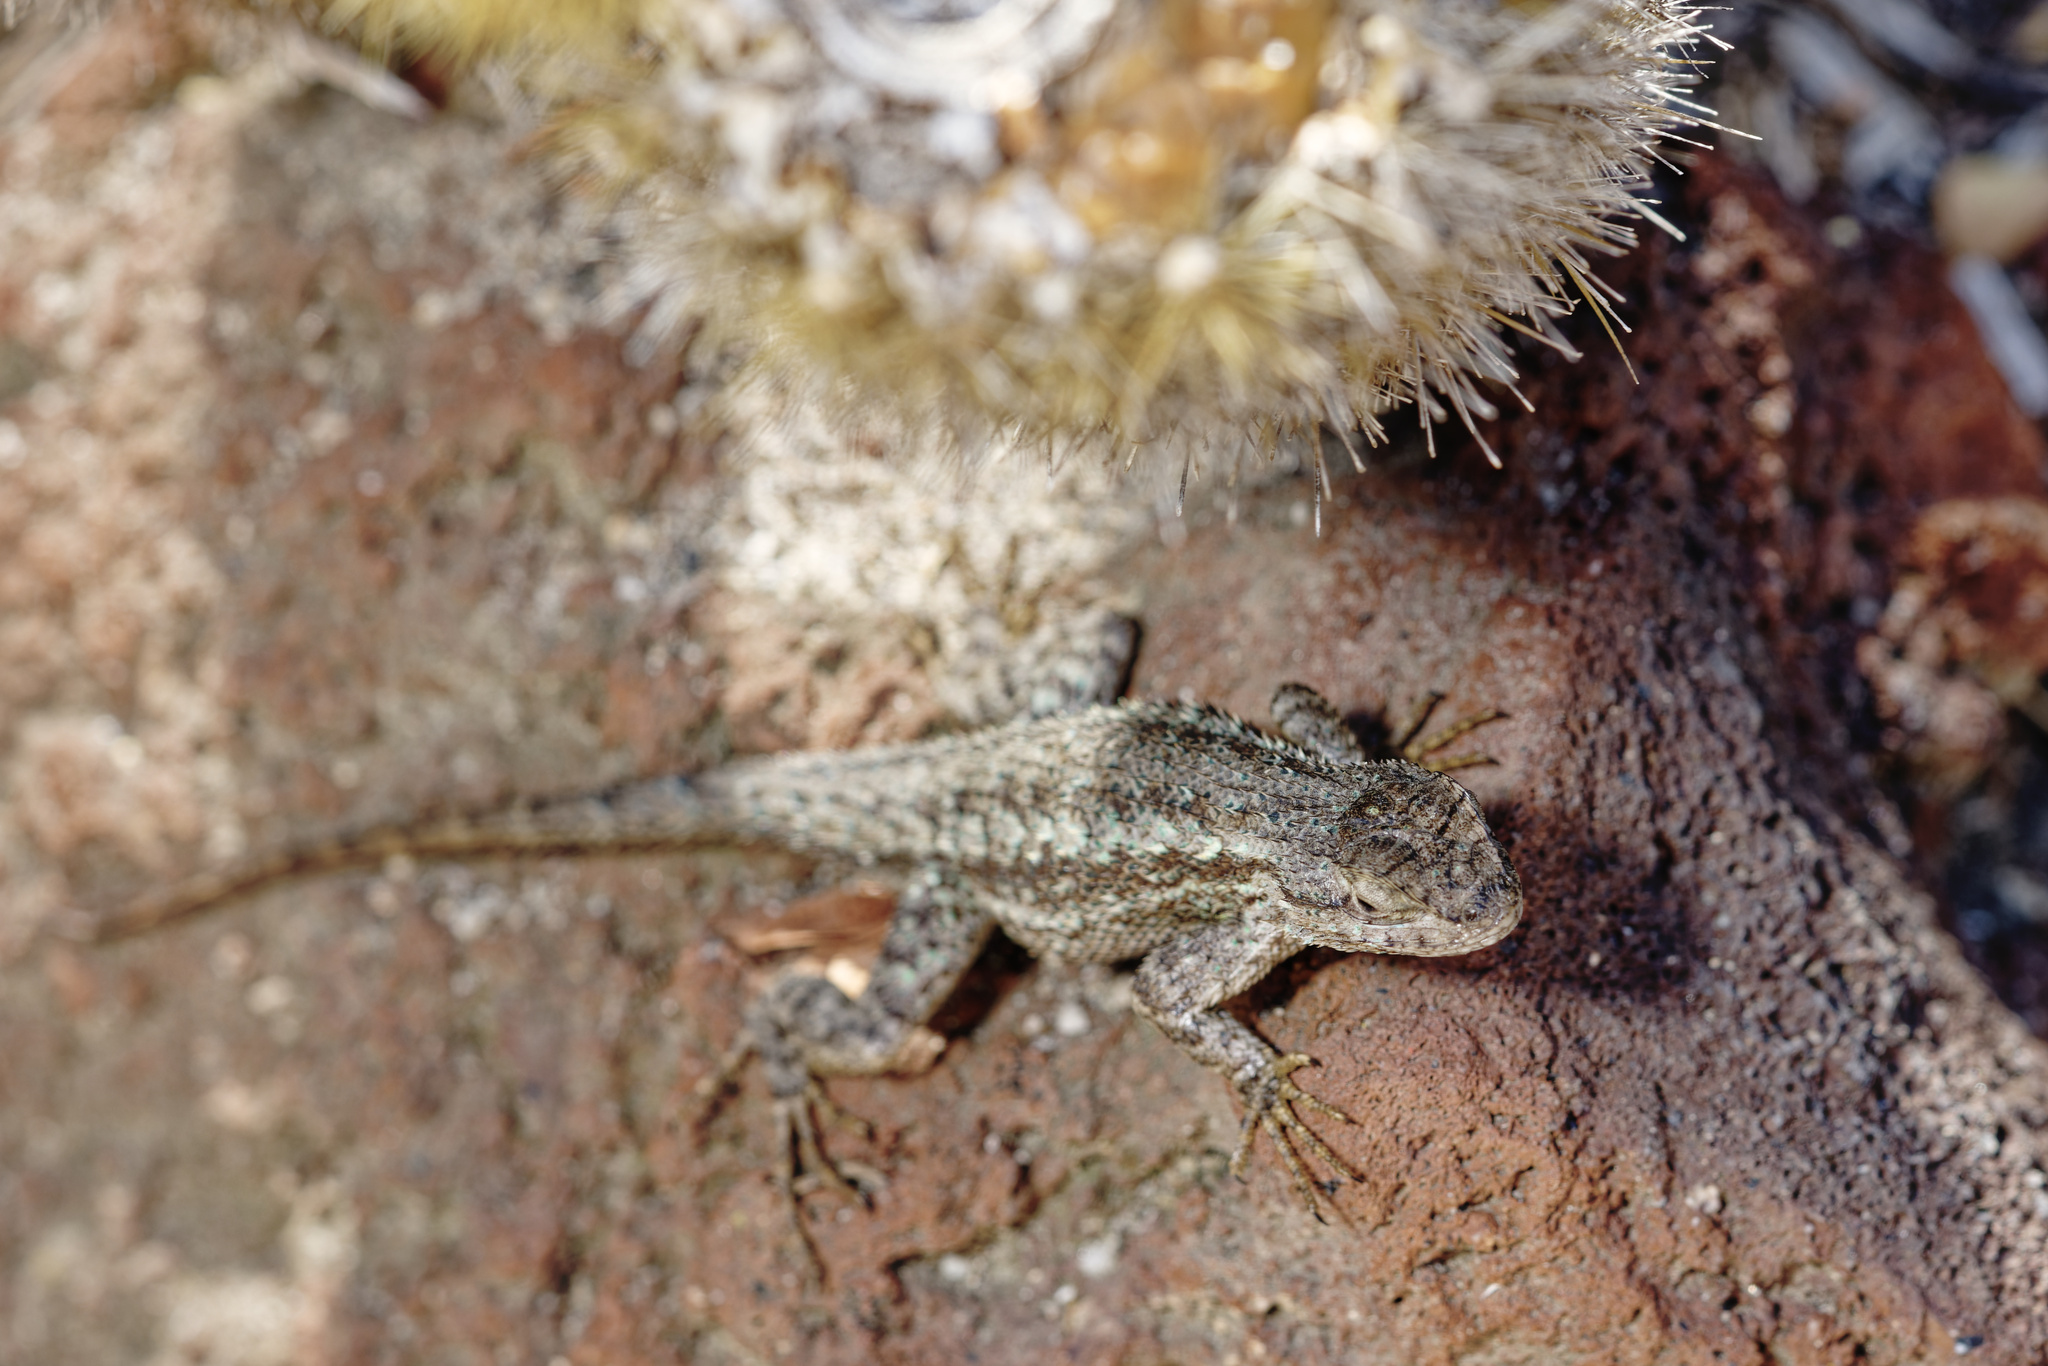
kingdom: Animalia
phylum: Chordata
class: Squamata
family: Phrynosomatidae
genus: Sceloporus
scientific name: Sceloporus occidentalis
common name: Western fence lizard
